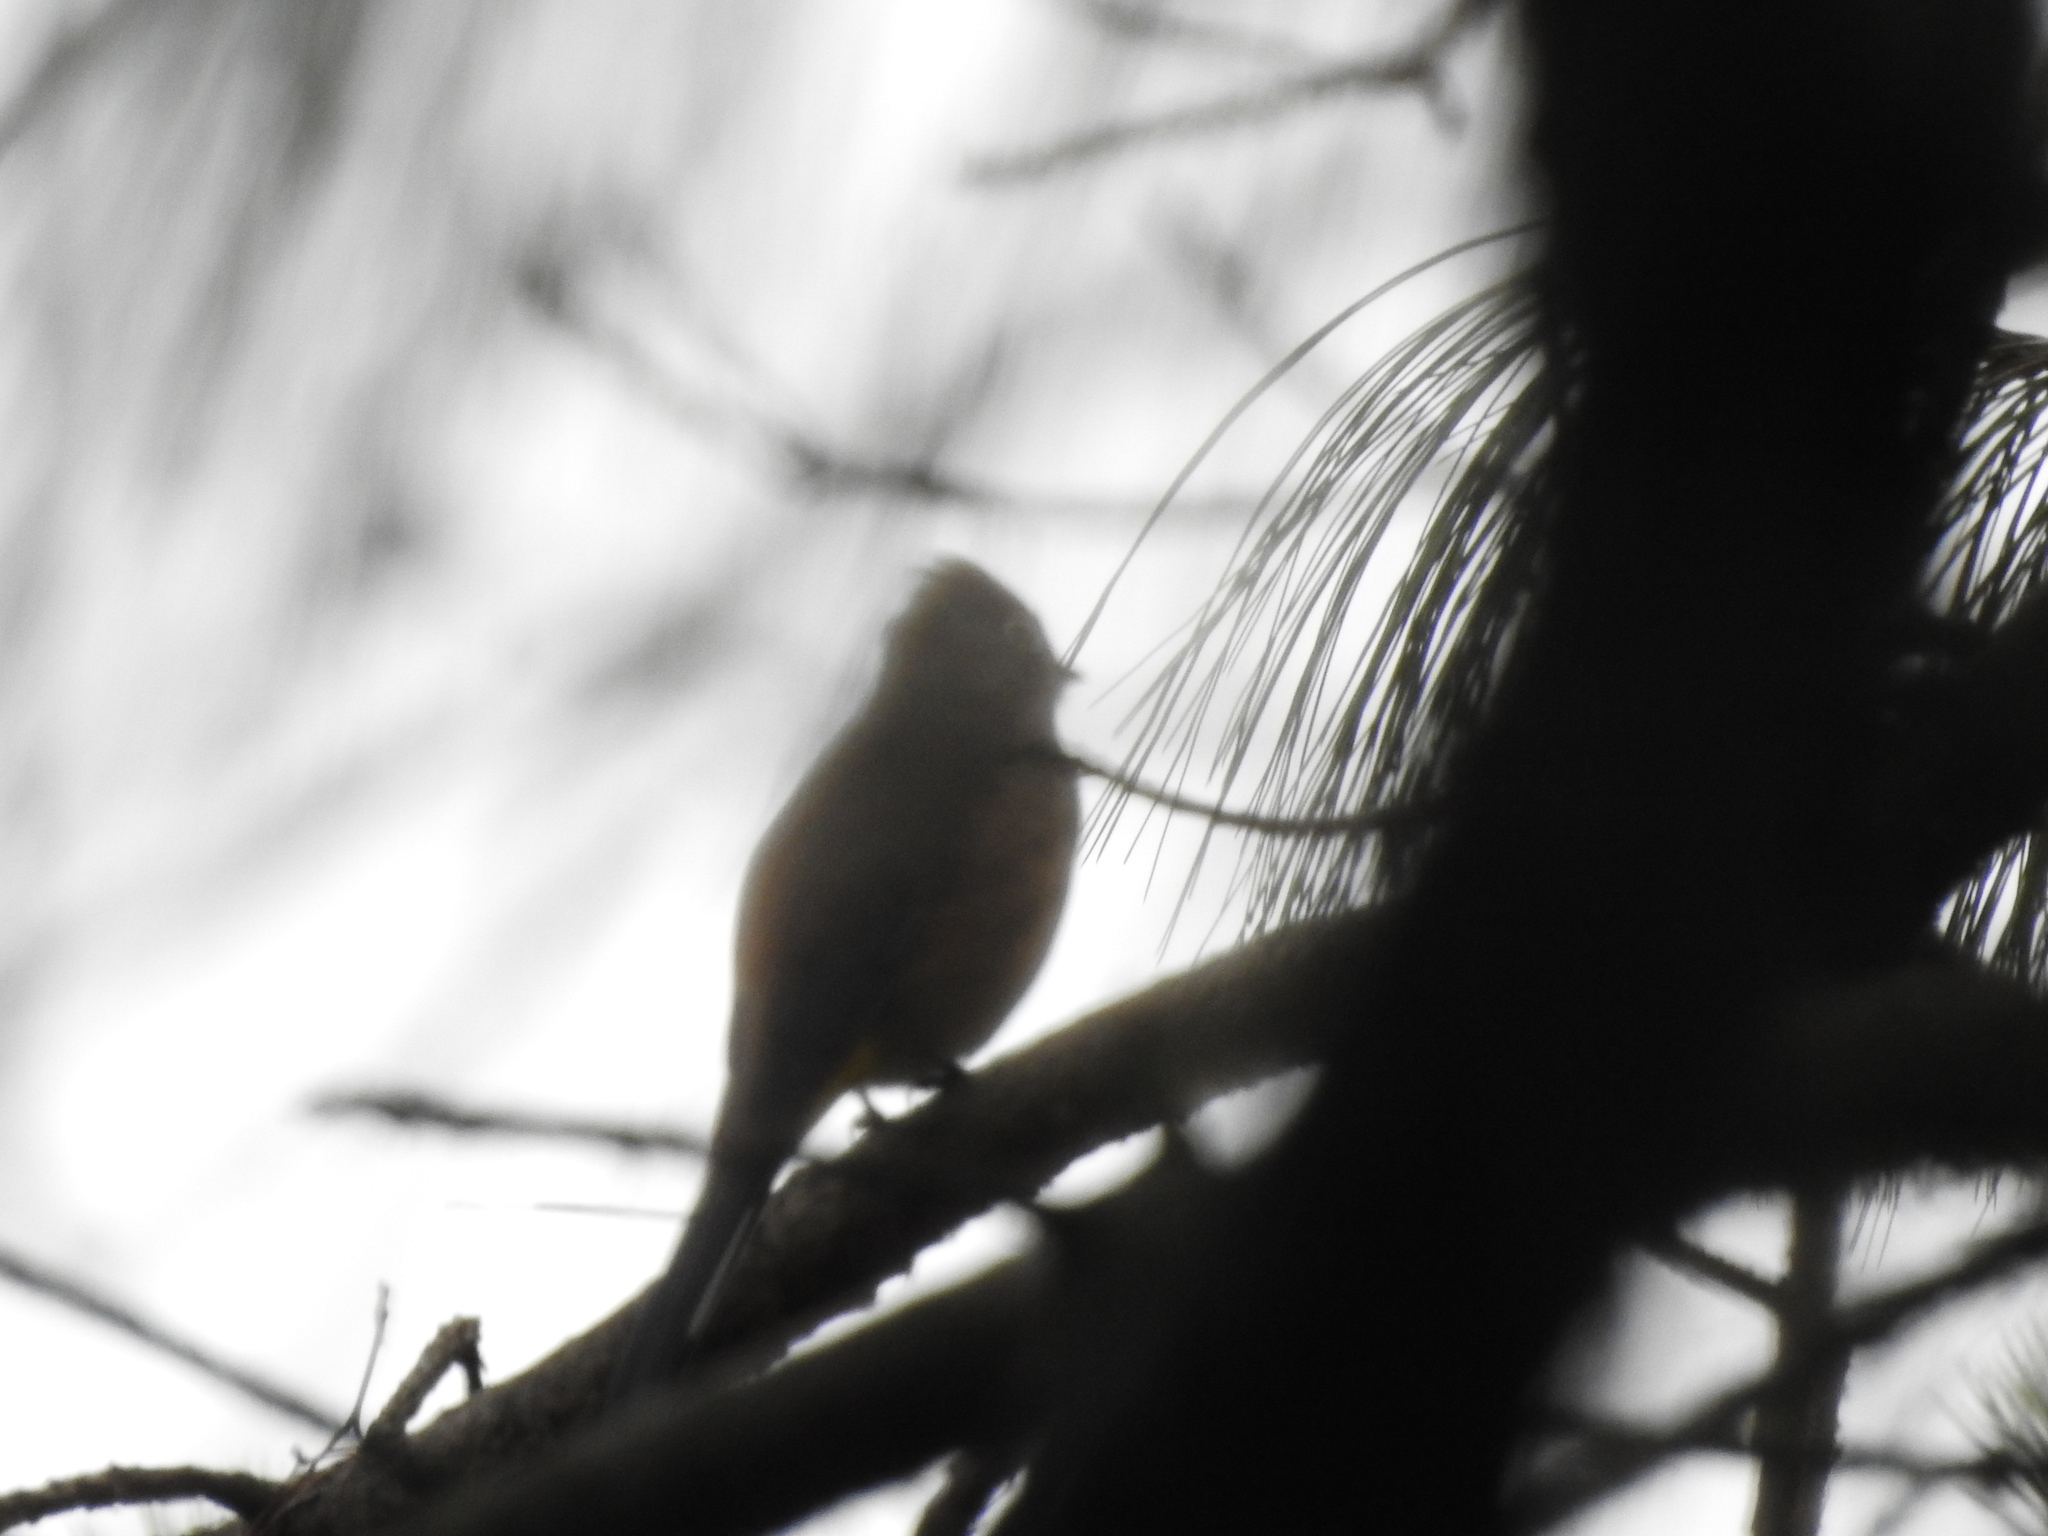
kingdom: Animalia
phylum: Chordata
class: Aves
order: Passeriformes
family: Ptilogonatidae
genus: Ptilogonys
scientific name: Ptilogonys cinereus
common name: Gray silky-flycatcher
